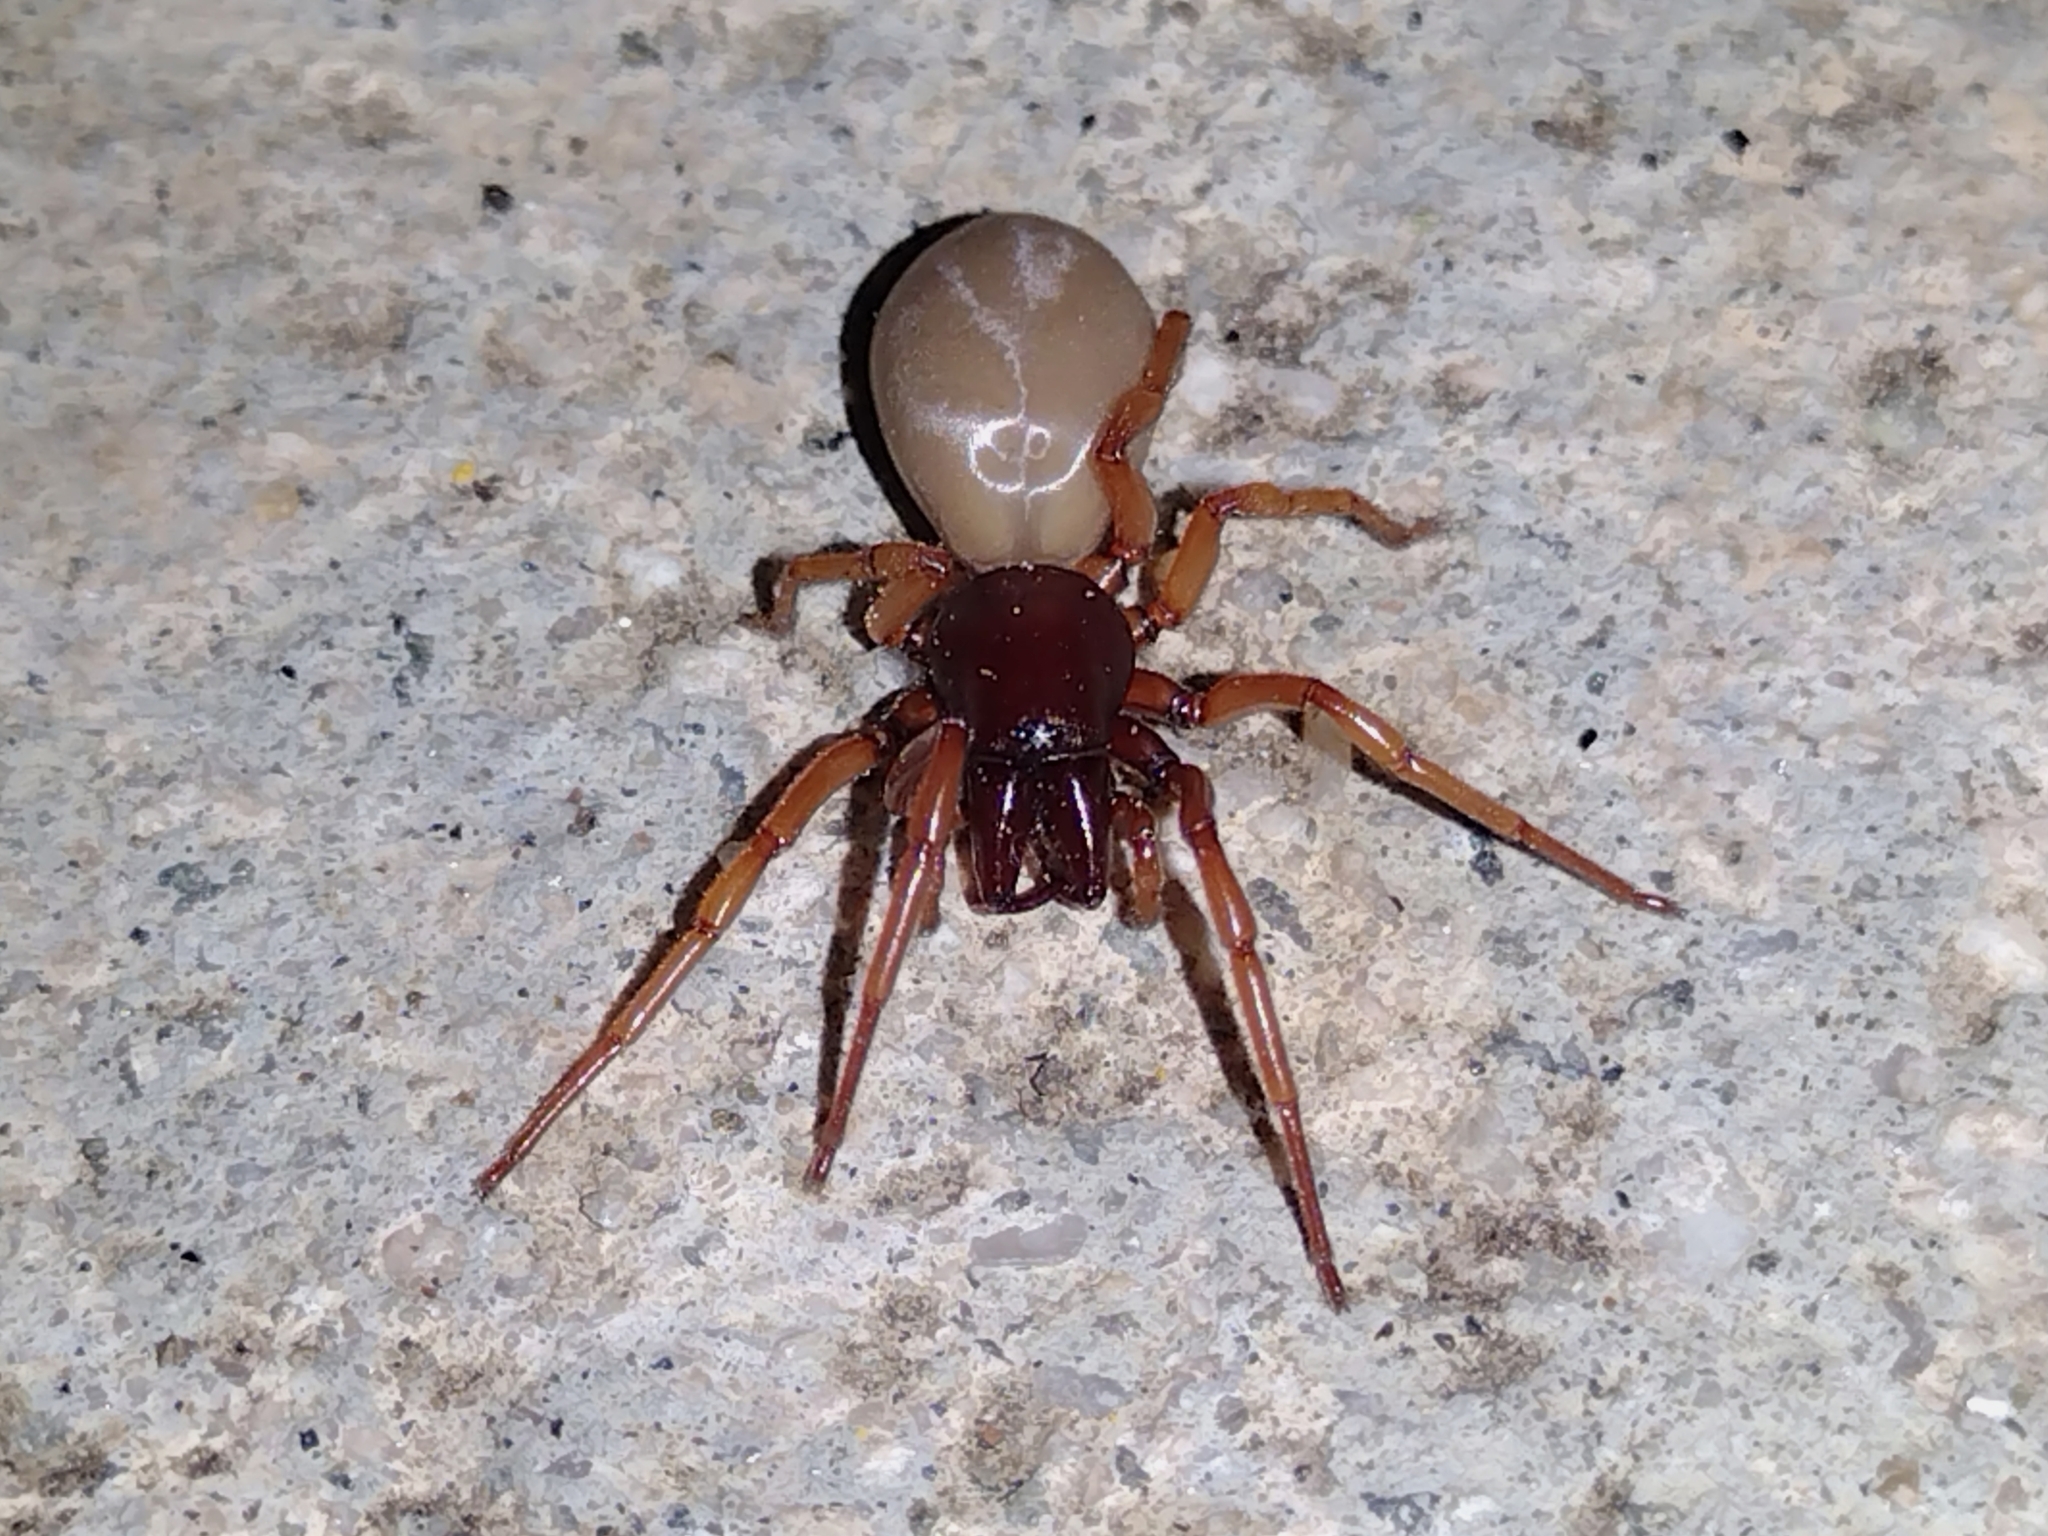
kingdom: Animalia
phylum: Arthropoda
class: Arachnida
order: Araneae
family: Dysderidae
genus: Dysdera
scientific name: Dysdera crocata
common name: Woodlouse spider
